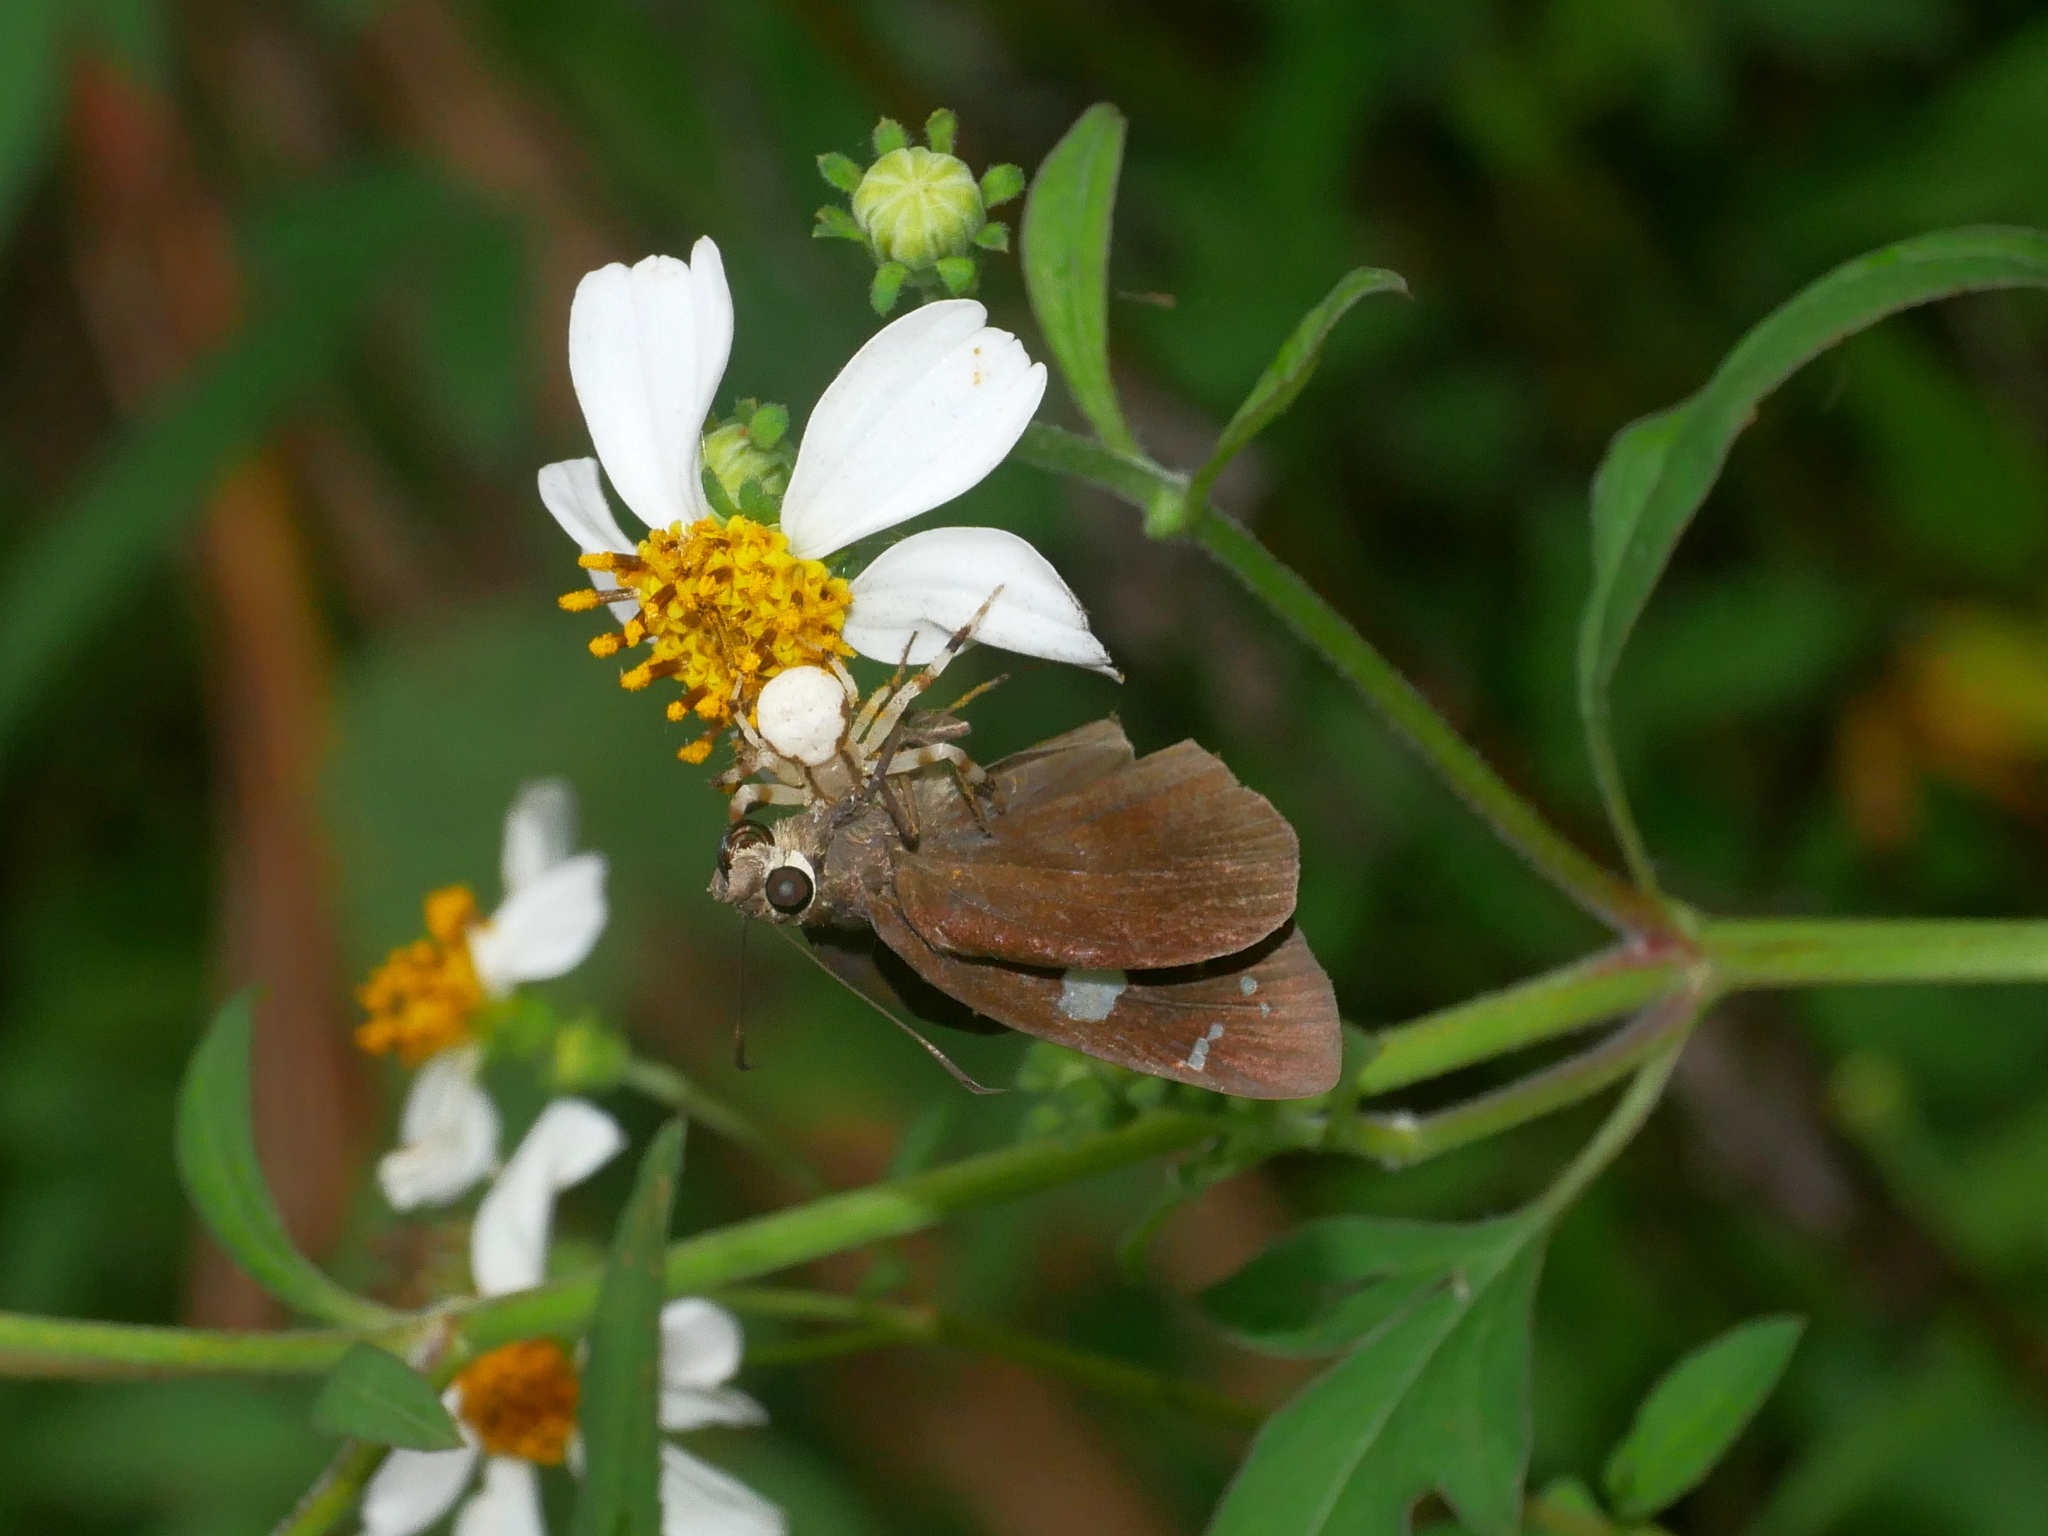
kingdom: Animalia
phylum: Arthropoda
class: Insecta
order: Lepidoptera
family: Hesperiidae
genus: Notocrypta
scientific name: Notocrypta curvifascia
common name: Restricted demon
